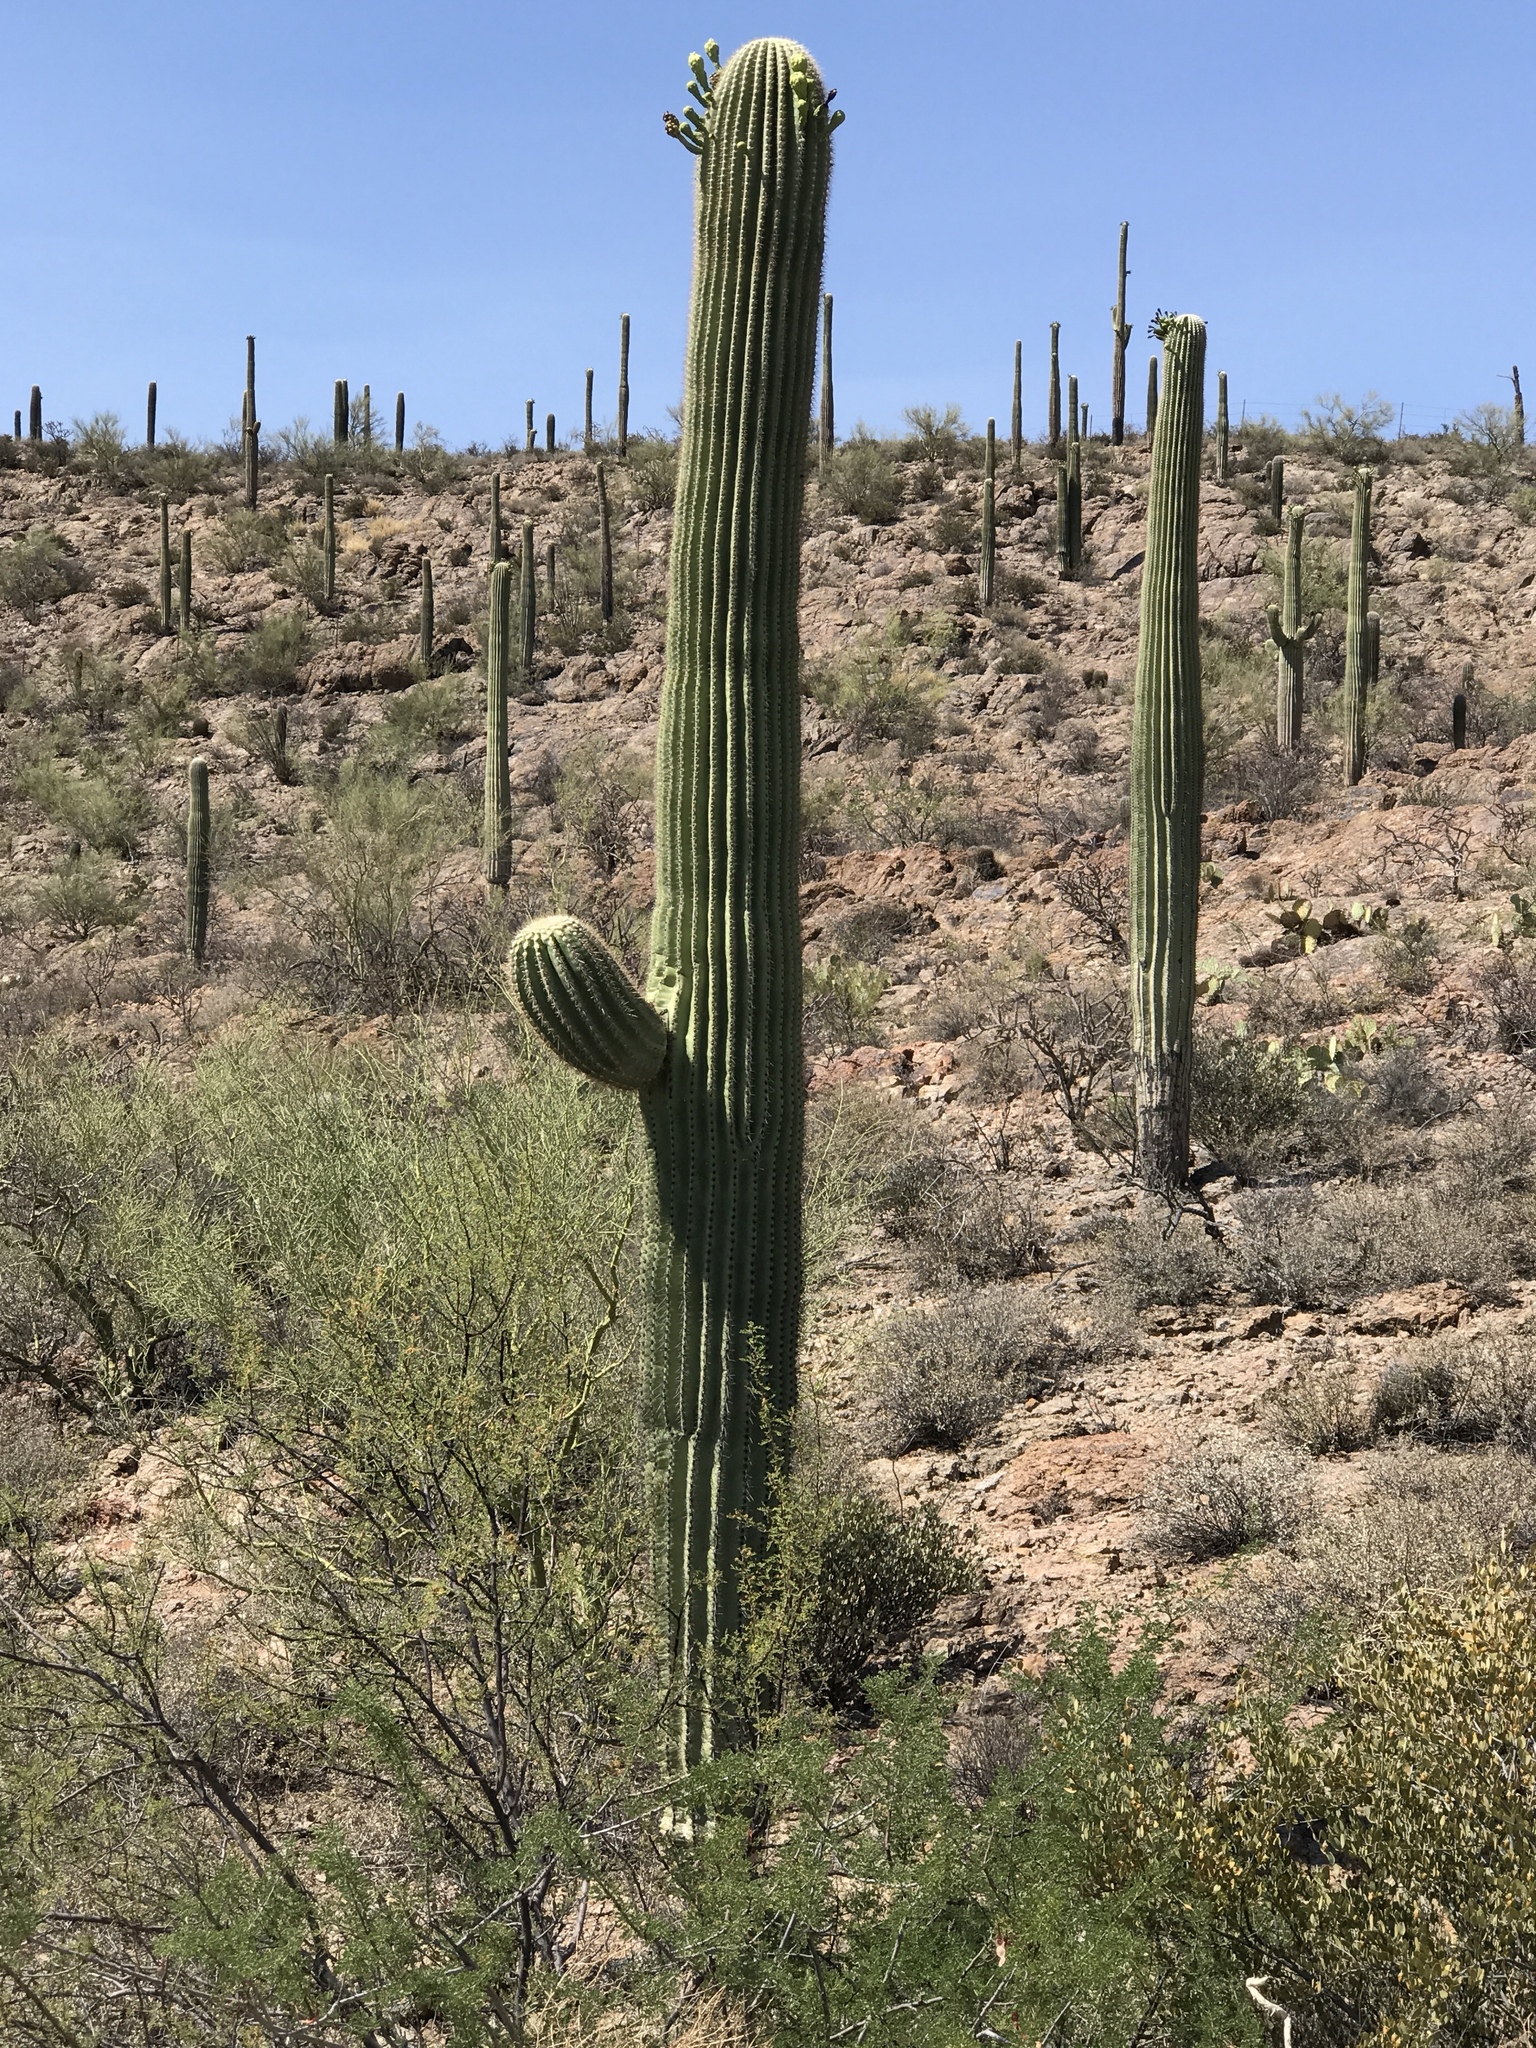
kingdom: Plantae
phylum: Tracheophyta
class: Magnoliopsida
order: Caryophyllales
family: Cactaceae
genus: Carnegiea
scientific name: Carnegiea gigantea
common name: Saguaro
